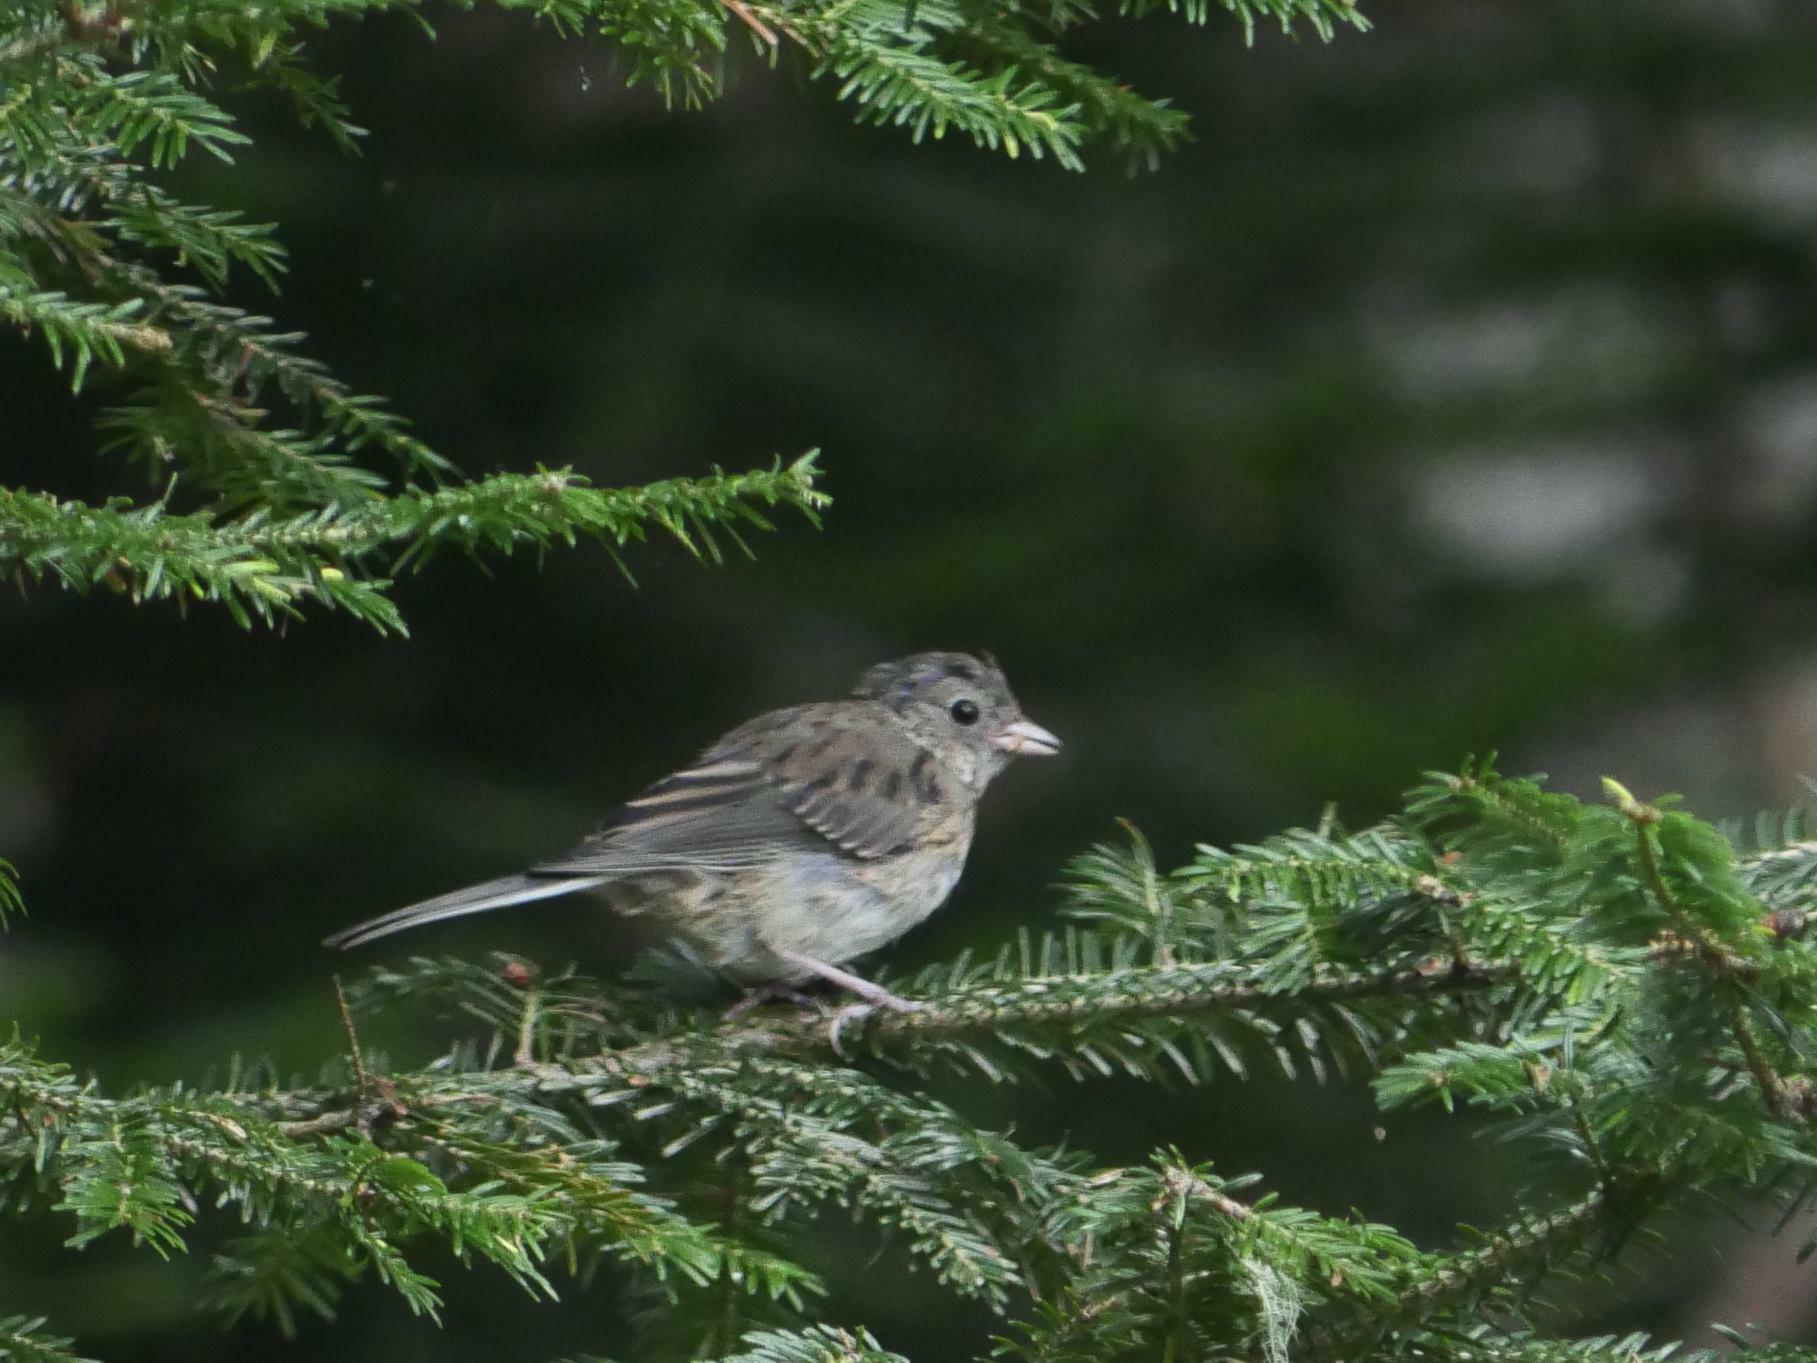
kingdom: Animalia
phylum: Chordata
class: Aves
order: Passeriformes
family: Passerellidae
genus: Junco
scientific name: Junco hyemalis
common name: Dark-eyed junco
